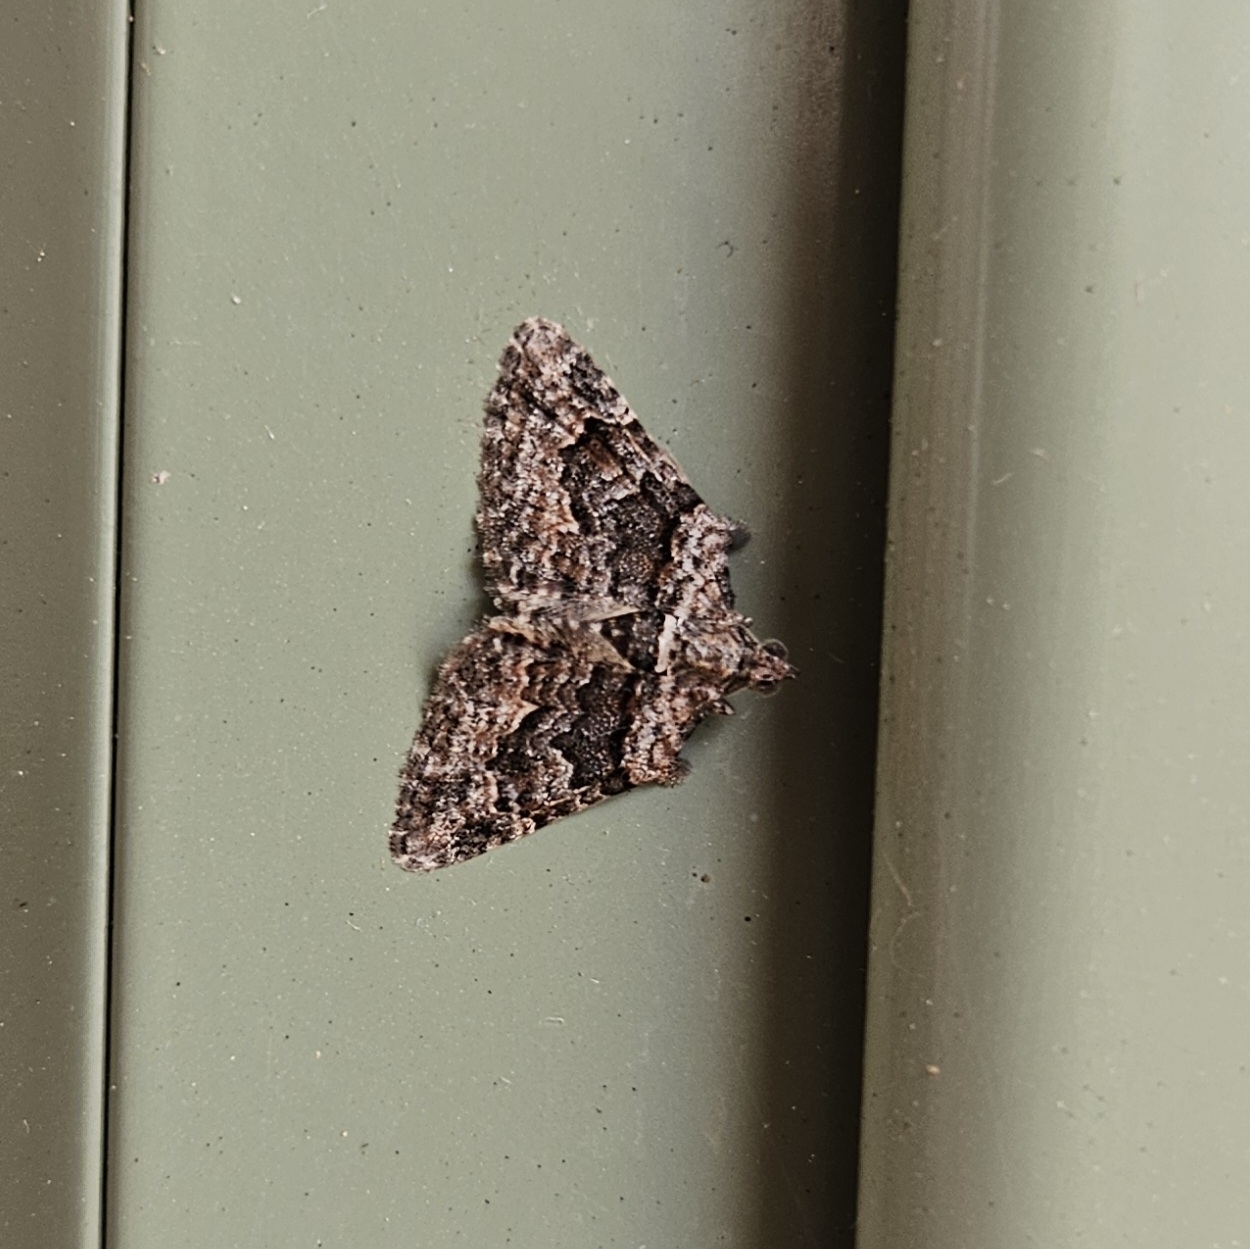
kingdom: Animalia
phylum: Arthropoda
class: Insecta
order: Lepidoptera
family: Geometridae
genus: Phrissogonus
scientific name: Phrissogonus laticostata
